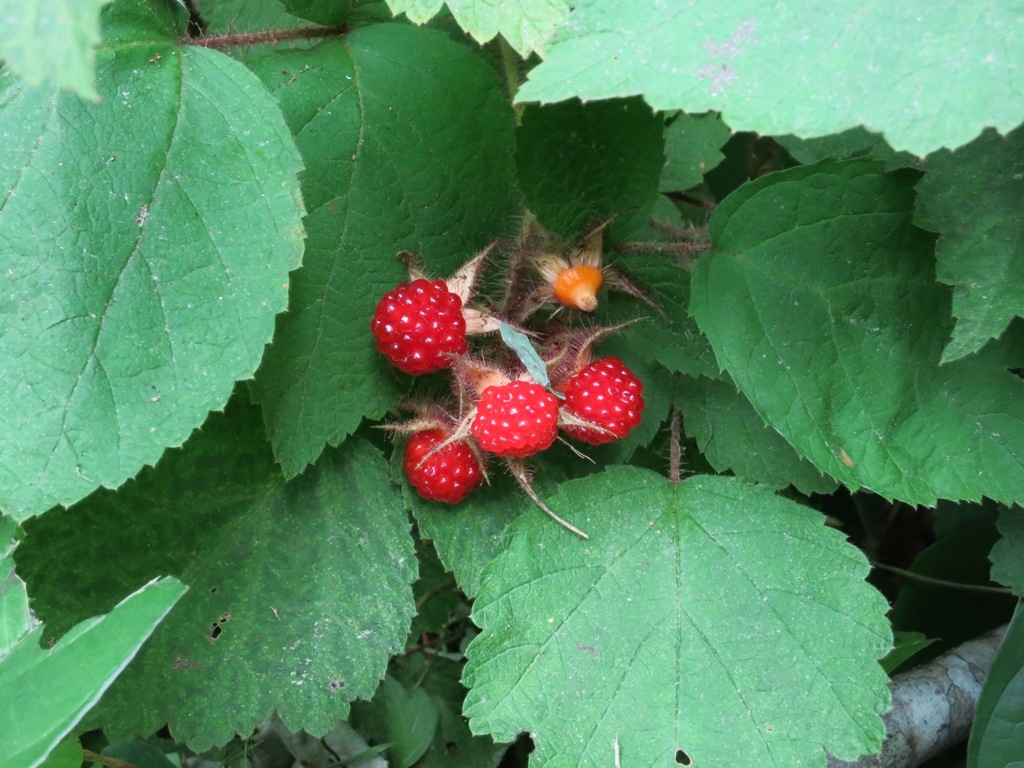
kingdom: Plantae
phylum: Tracheophyta
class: Magnoliopsida
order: Rosales
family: Rosaceae
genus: Rubus
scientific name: Rubus phoenicolasius
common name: Japanese wineberry
